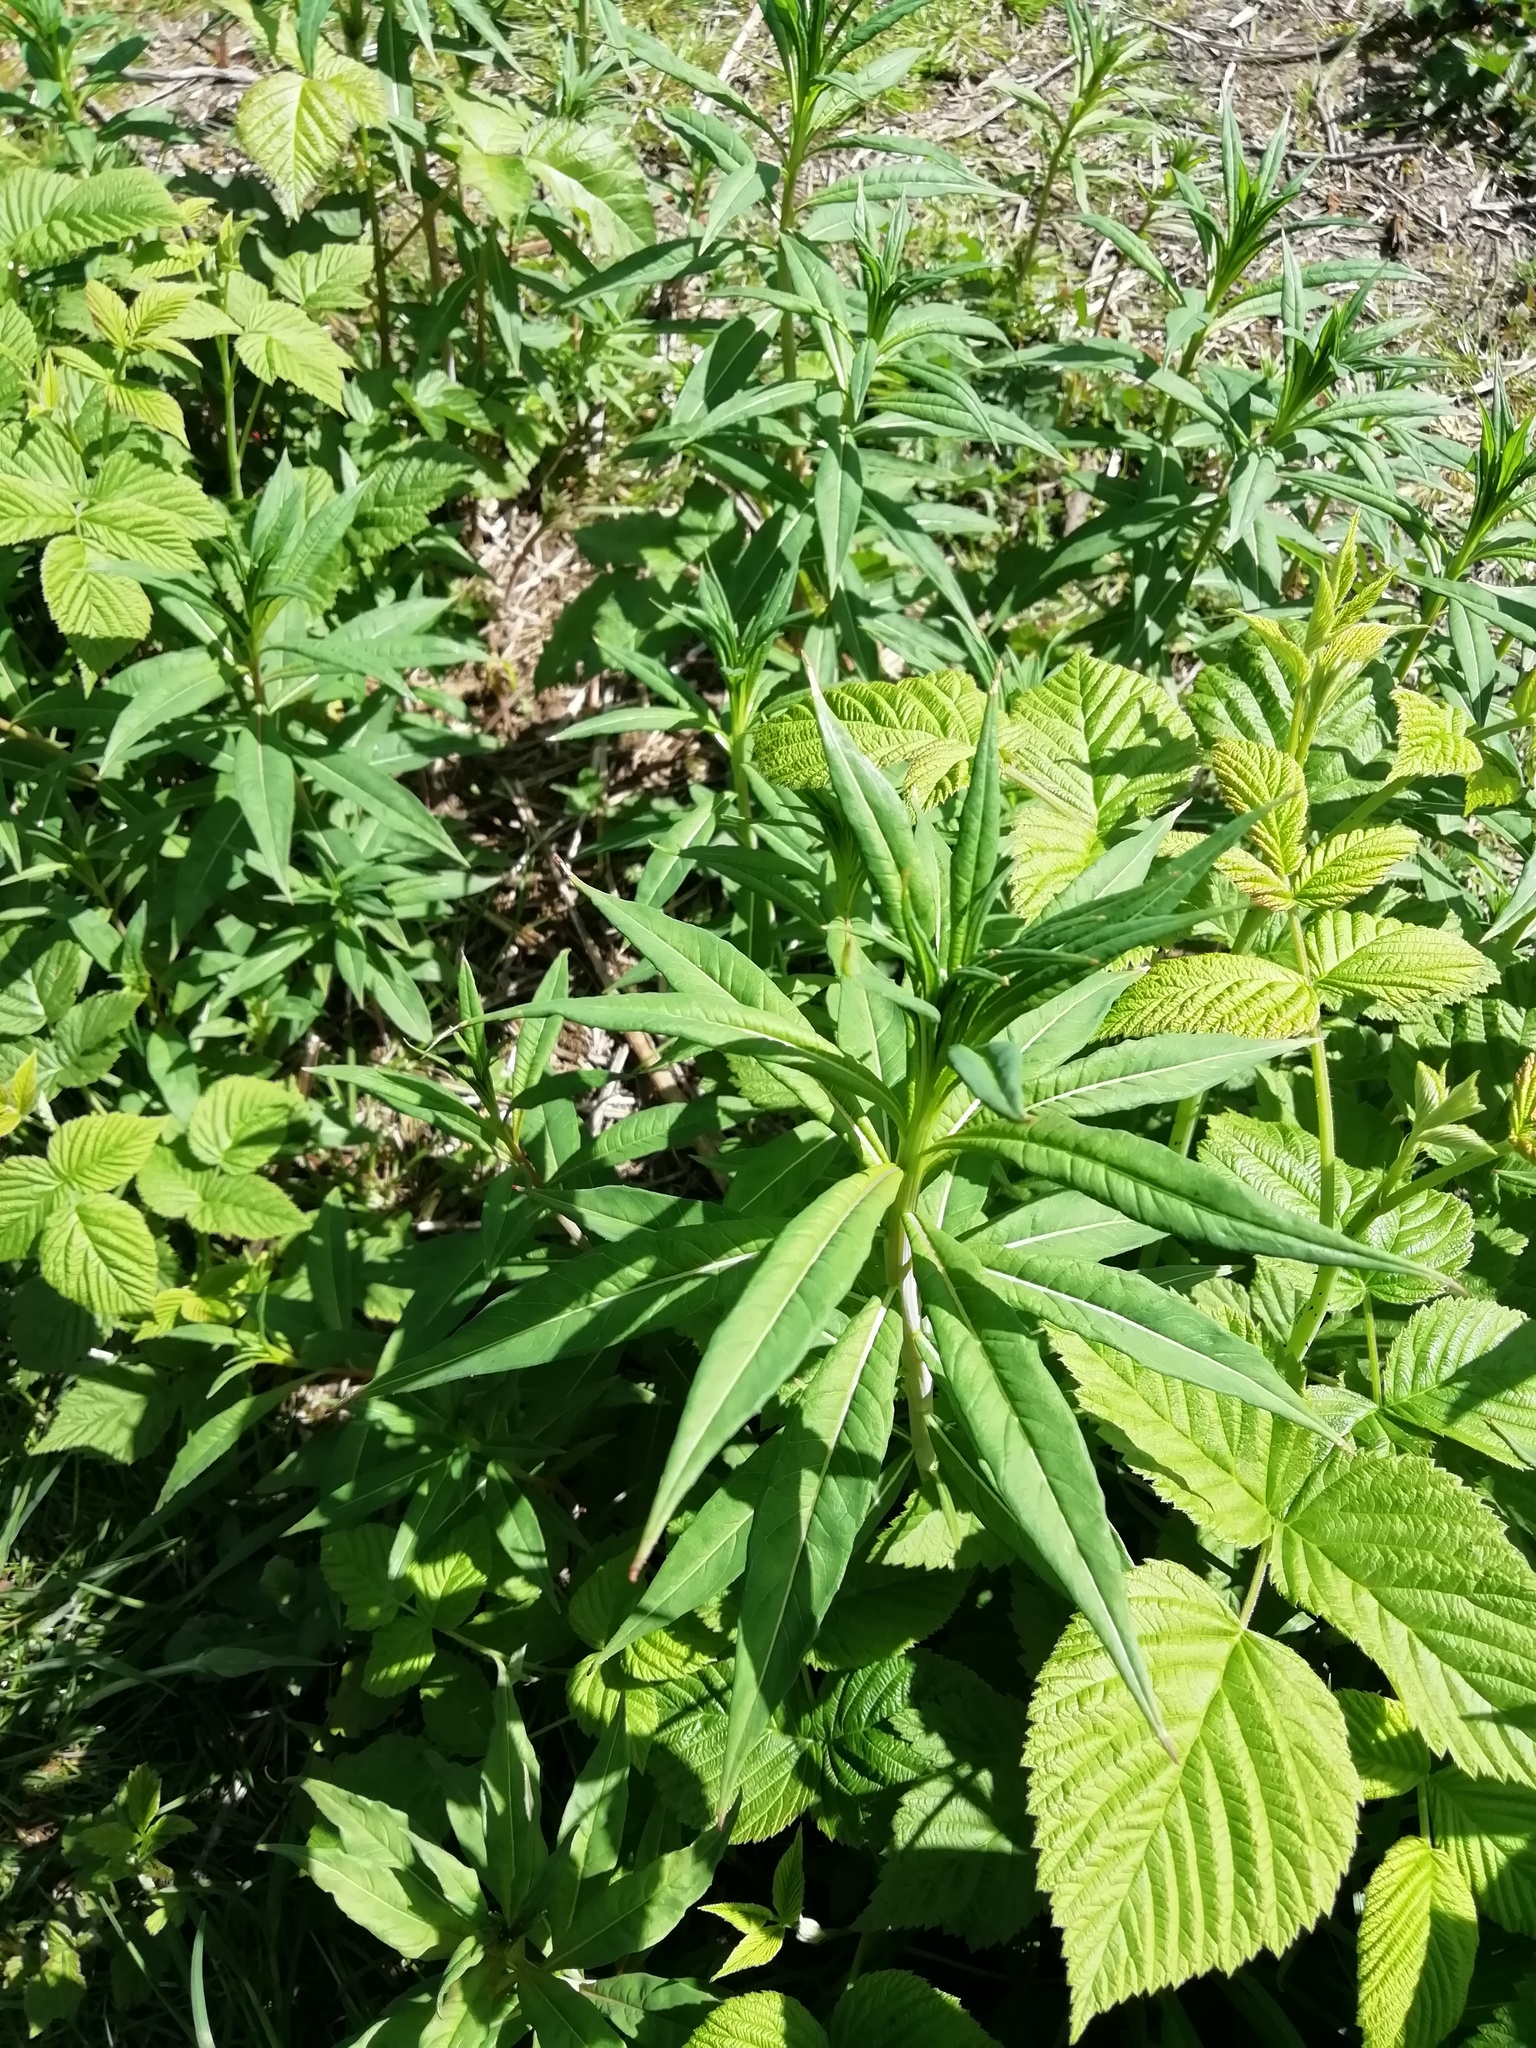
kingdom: Plantae
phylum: Tracheophyta
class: Magnoliopsida
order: Myrtales
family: Onagraceae
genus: Chamaenerion
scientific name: Chamaenerion angustifolium
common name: Fireweed
